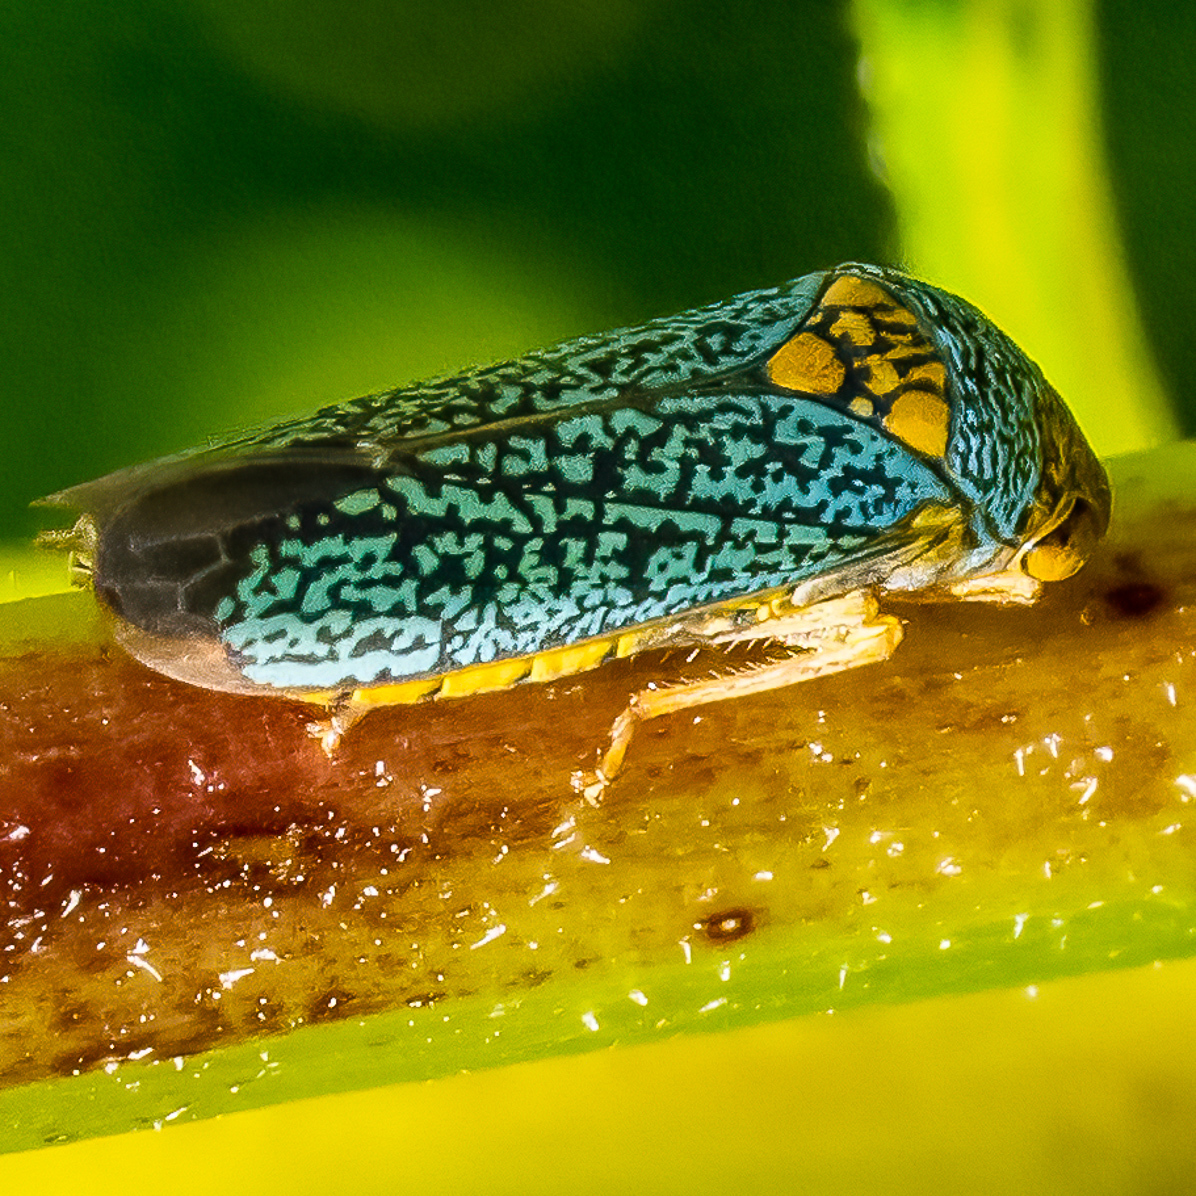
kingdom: Animalia
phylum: Arthropoda
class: Insecta
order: Hemiptera
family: Cicadellidae
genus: Oncometopia
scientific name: Oncometopia orbona
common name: Broad-headed sharpshooter
